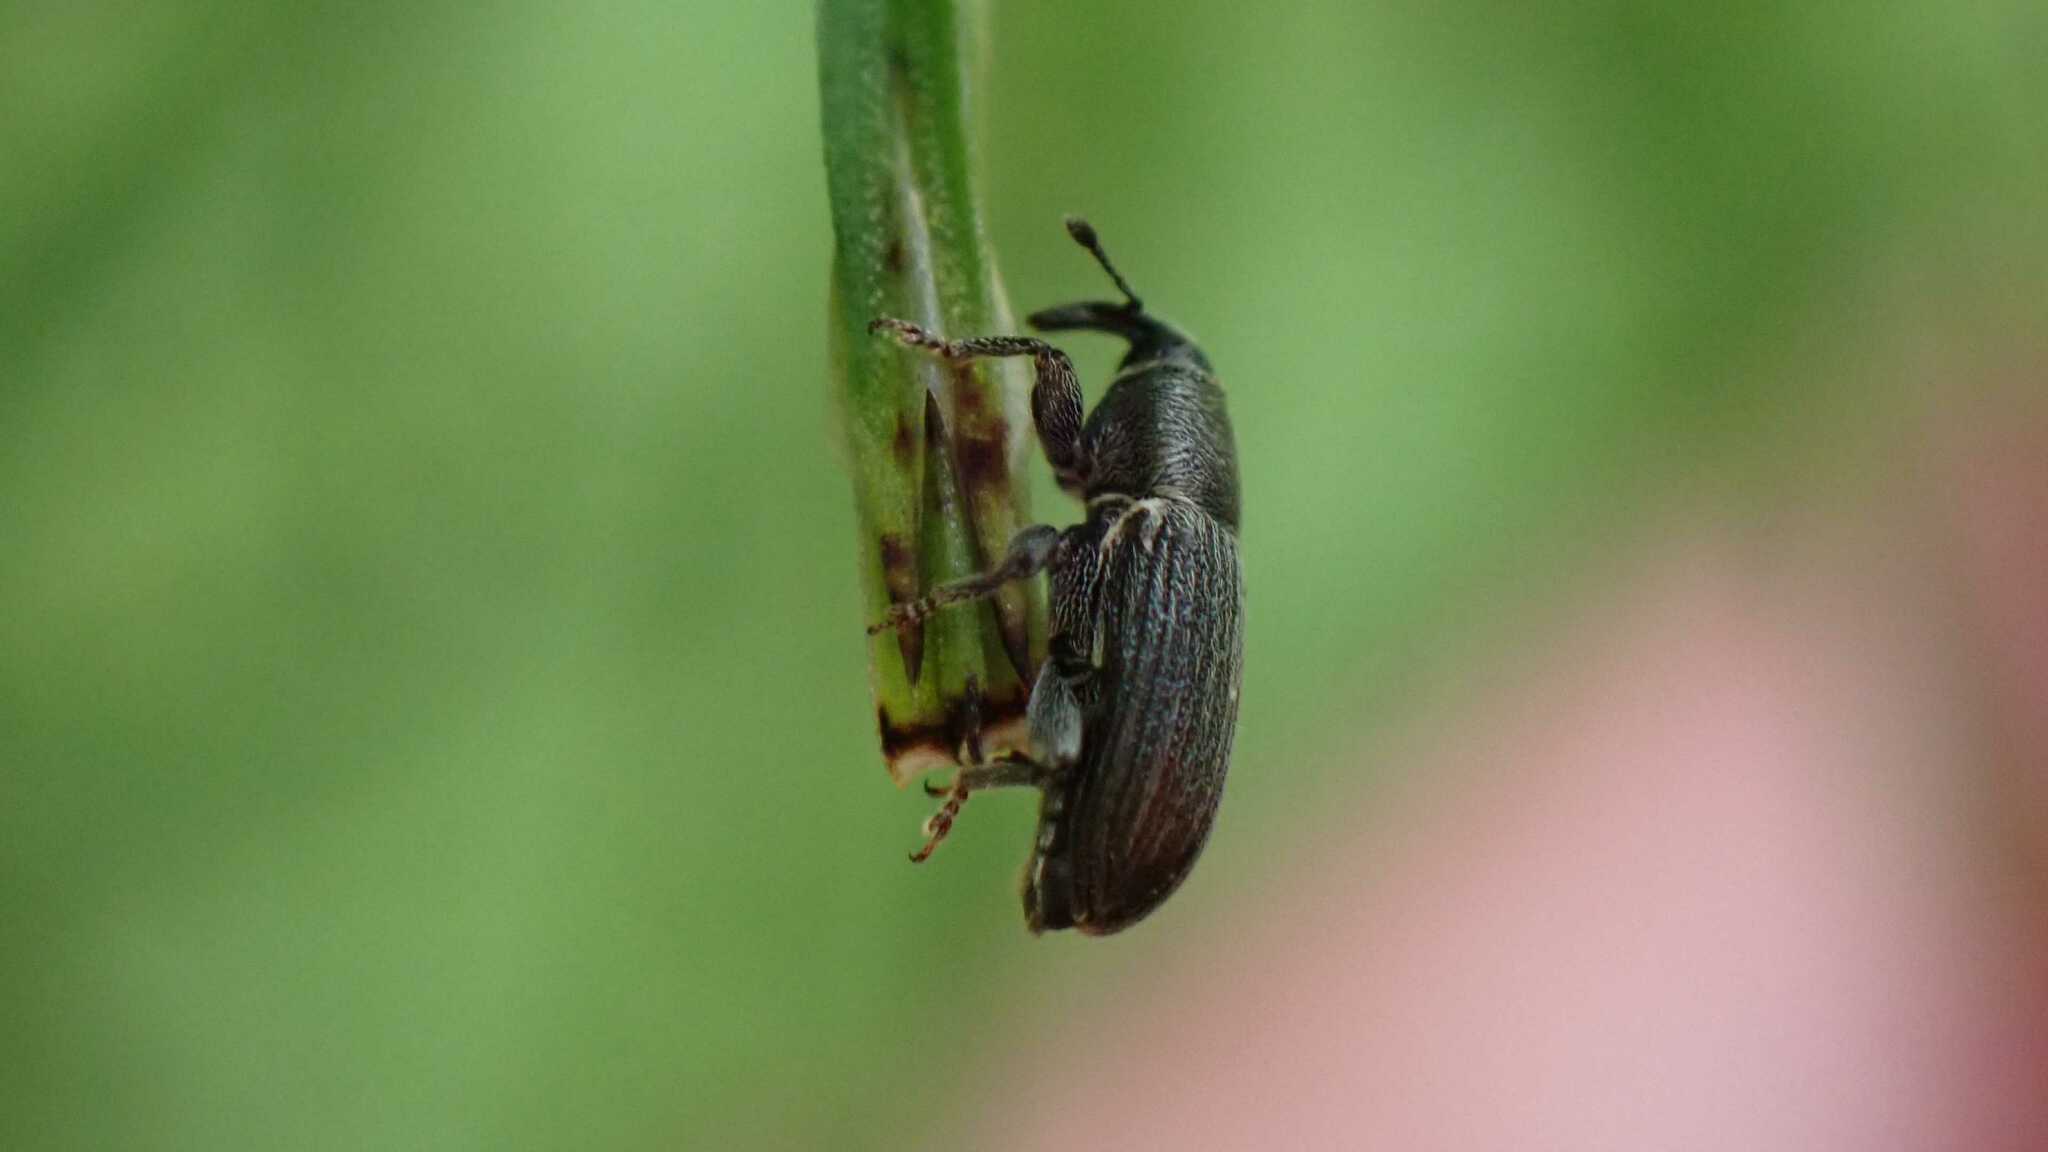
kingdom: Animalia
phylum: Arthropoda
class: Insecta
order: Coleoptera
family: Curculionidae
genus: Mecinus
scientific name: Mecinus pyraster
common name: Weevil
